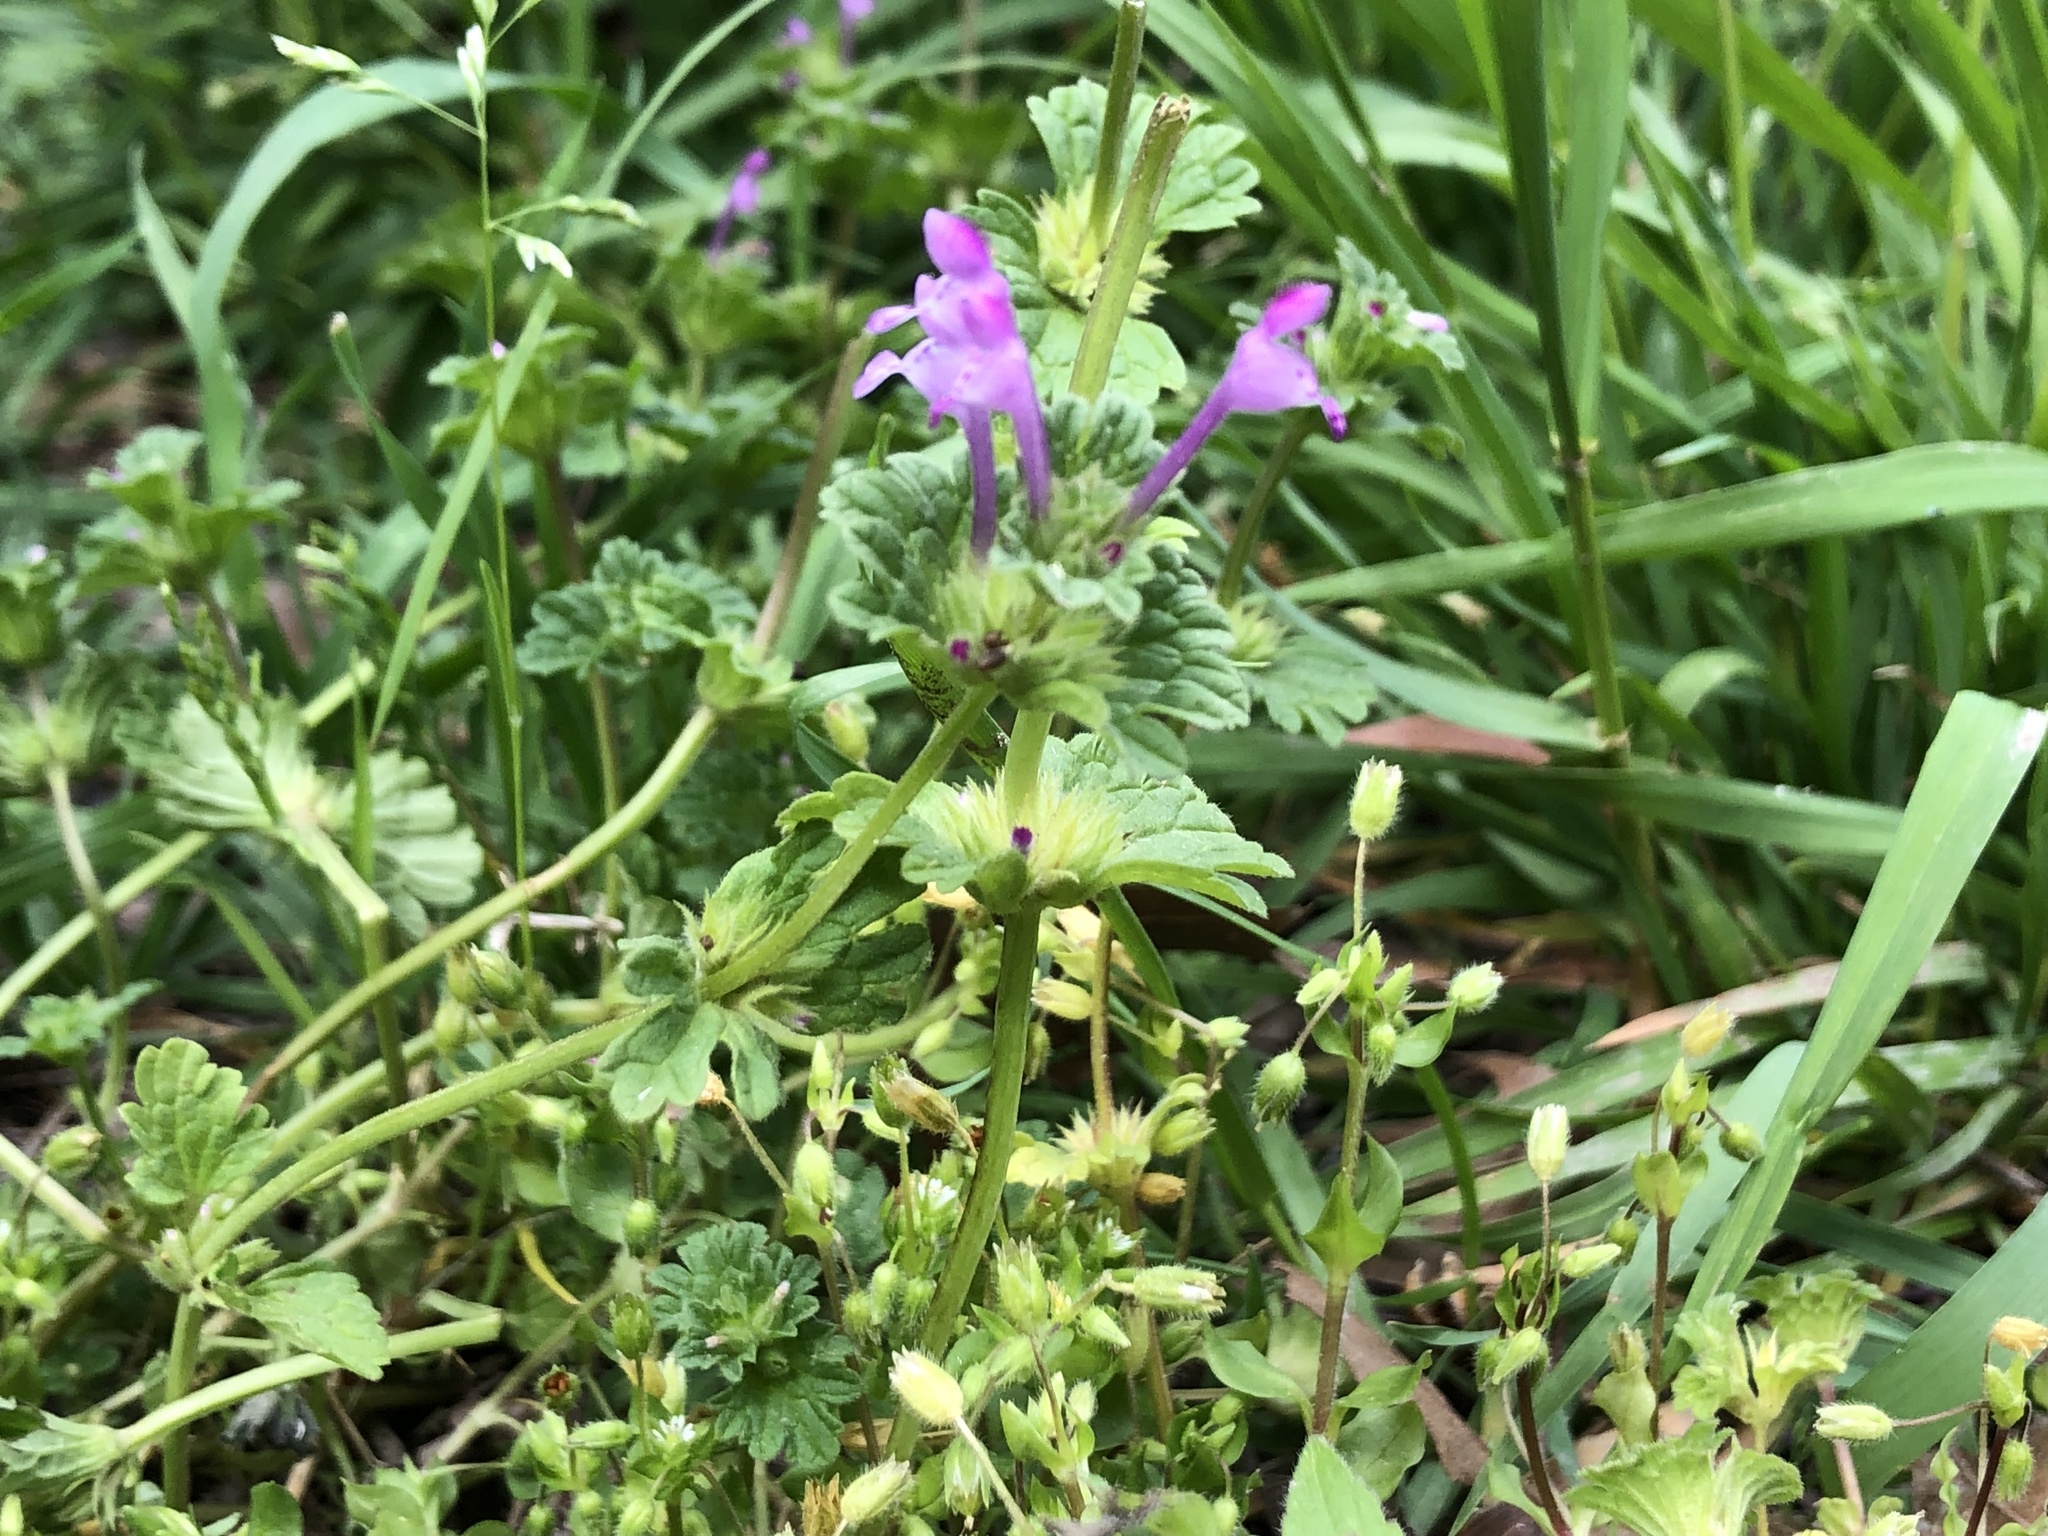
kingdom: Plantae
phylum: Tracheophyta
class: Magnoliopsida
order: Lamiales
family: Lamiaceae
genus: Lamium
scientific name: Lamium amplexicaule
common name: Henbit dead-nettle
